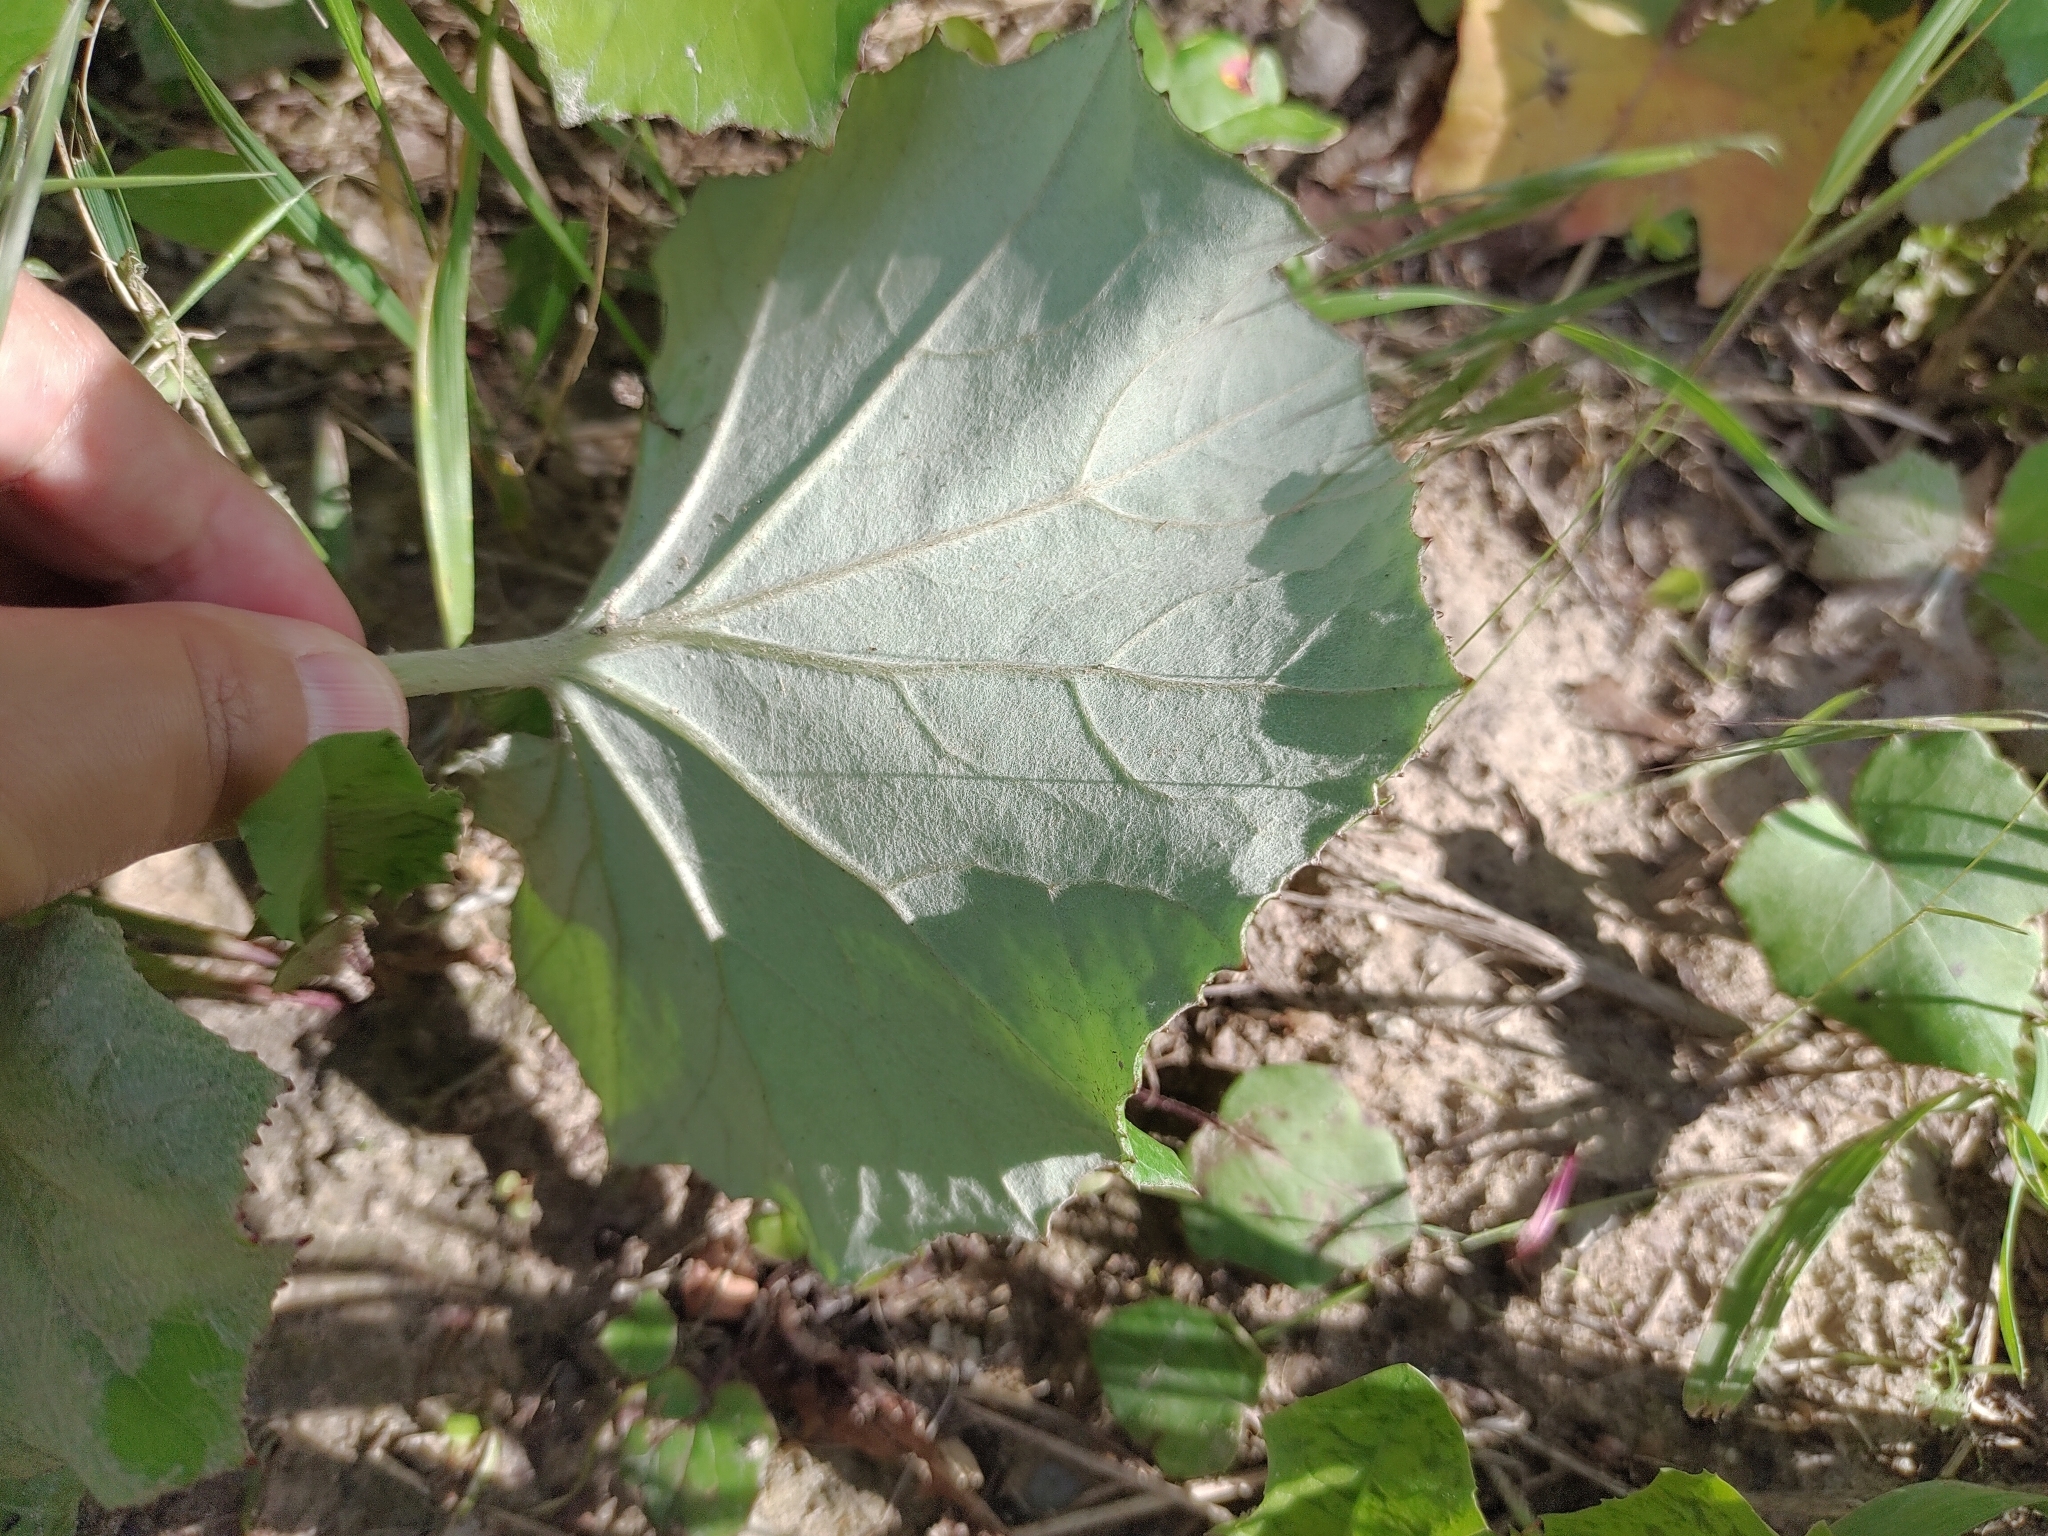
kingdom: Plantae
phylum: Tracheophyta
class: Magnoliopsida
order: Asterales
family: Asteraceae
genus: Tussilago
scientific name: Tussilago farfara
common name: Coltsfoot
